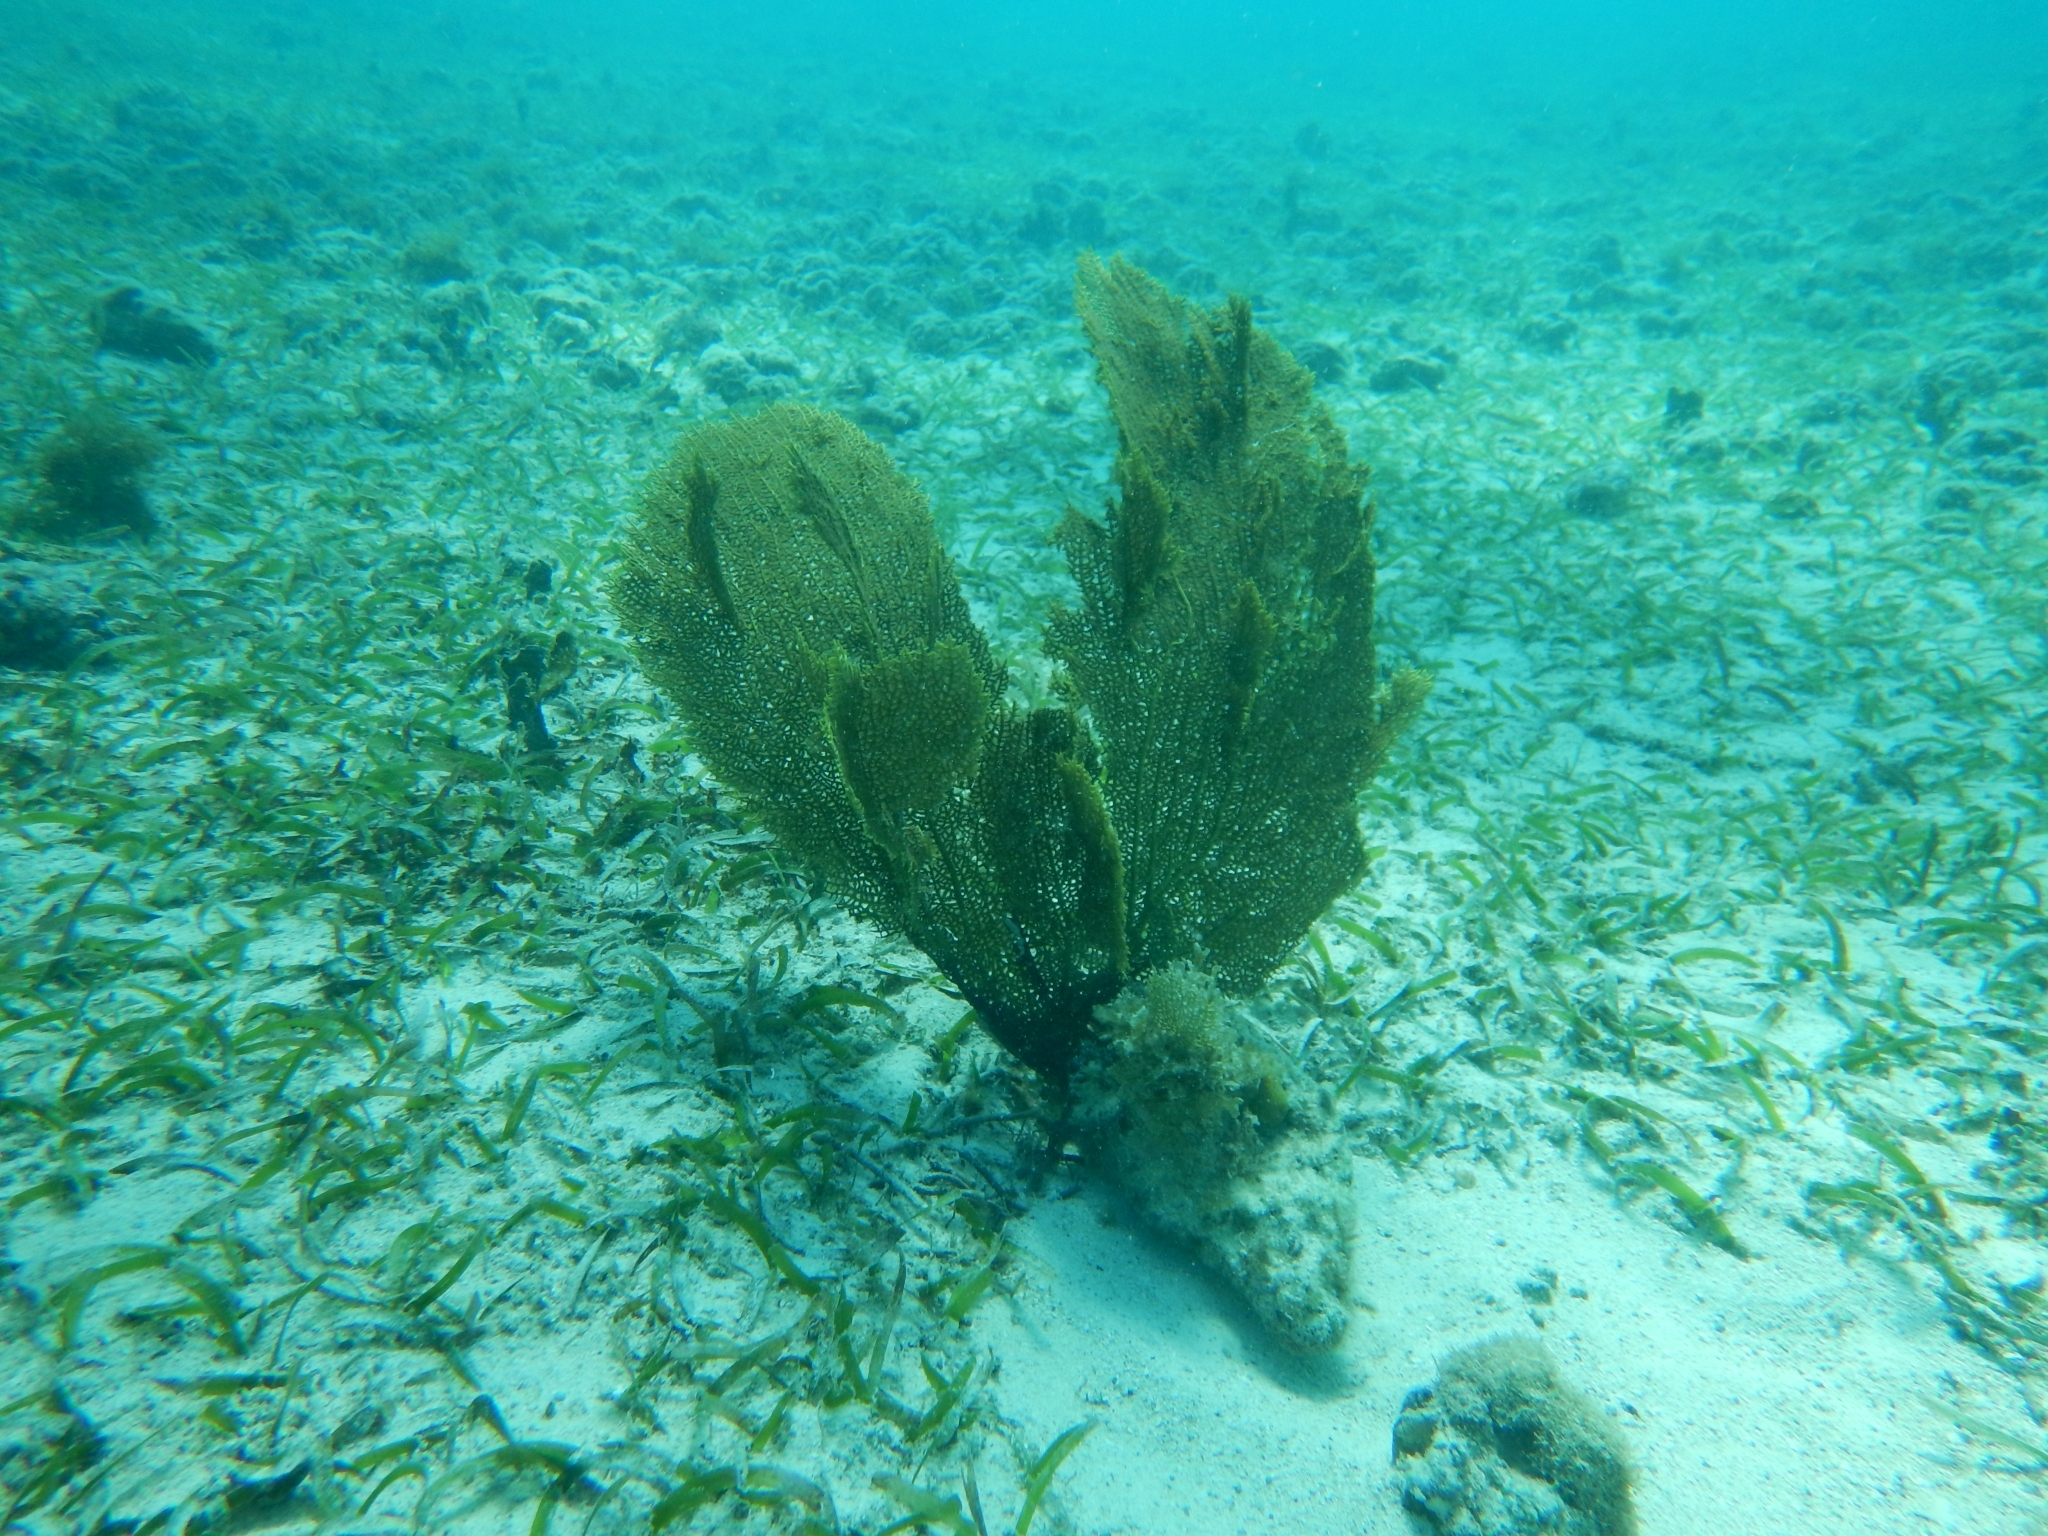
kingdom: Animalia
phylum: Cnidaria
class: Anthozoa
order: Malacalcyonacea
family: Gorgoniidae
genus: Gorgonia
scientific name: Gorgonia ventalina
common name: Common sea fan
